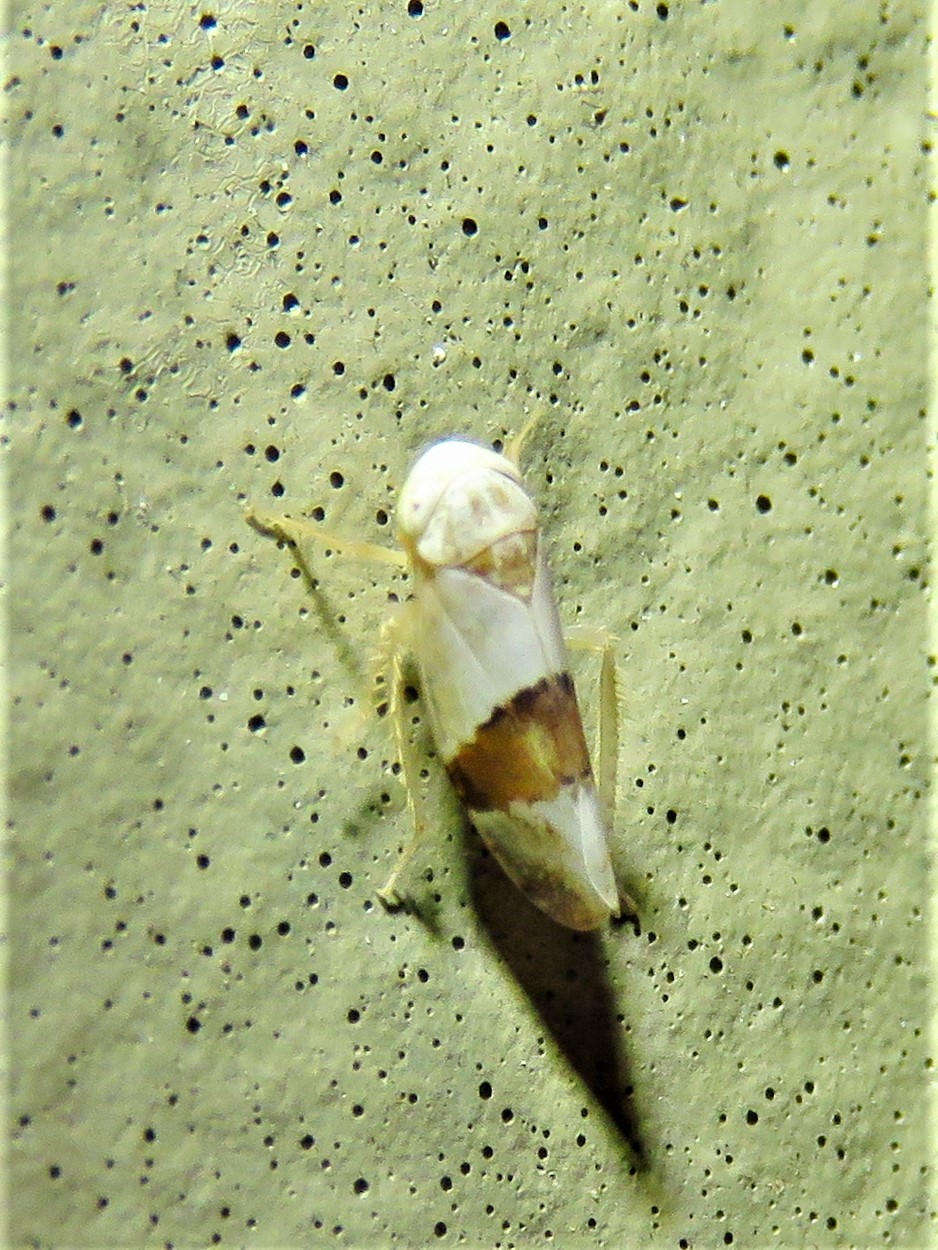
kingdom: Animalia
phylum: Arthropoda
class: Insecta
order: Hemiptera
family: Cicadellidae
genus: Norvellina
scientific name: Norvellina seminuda
